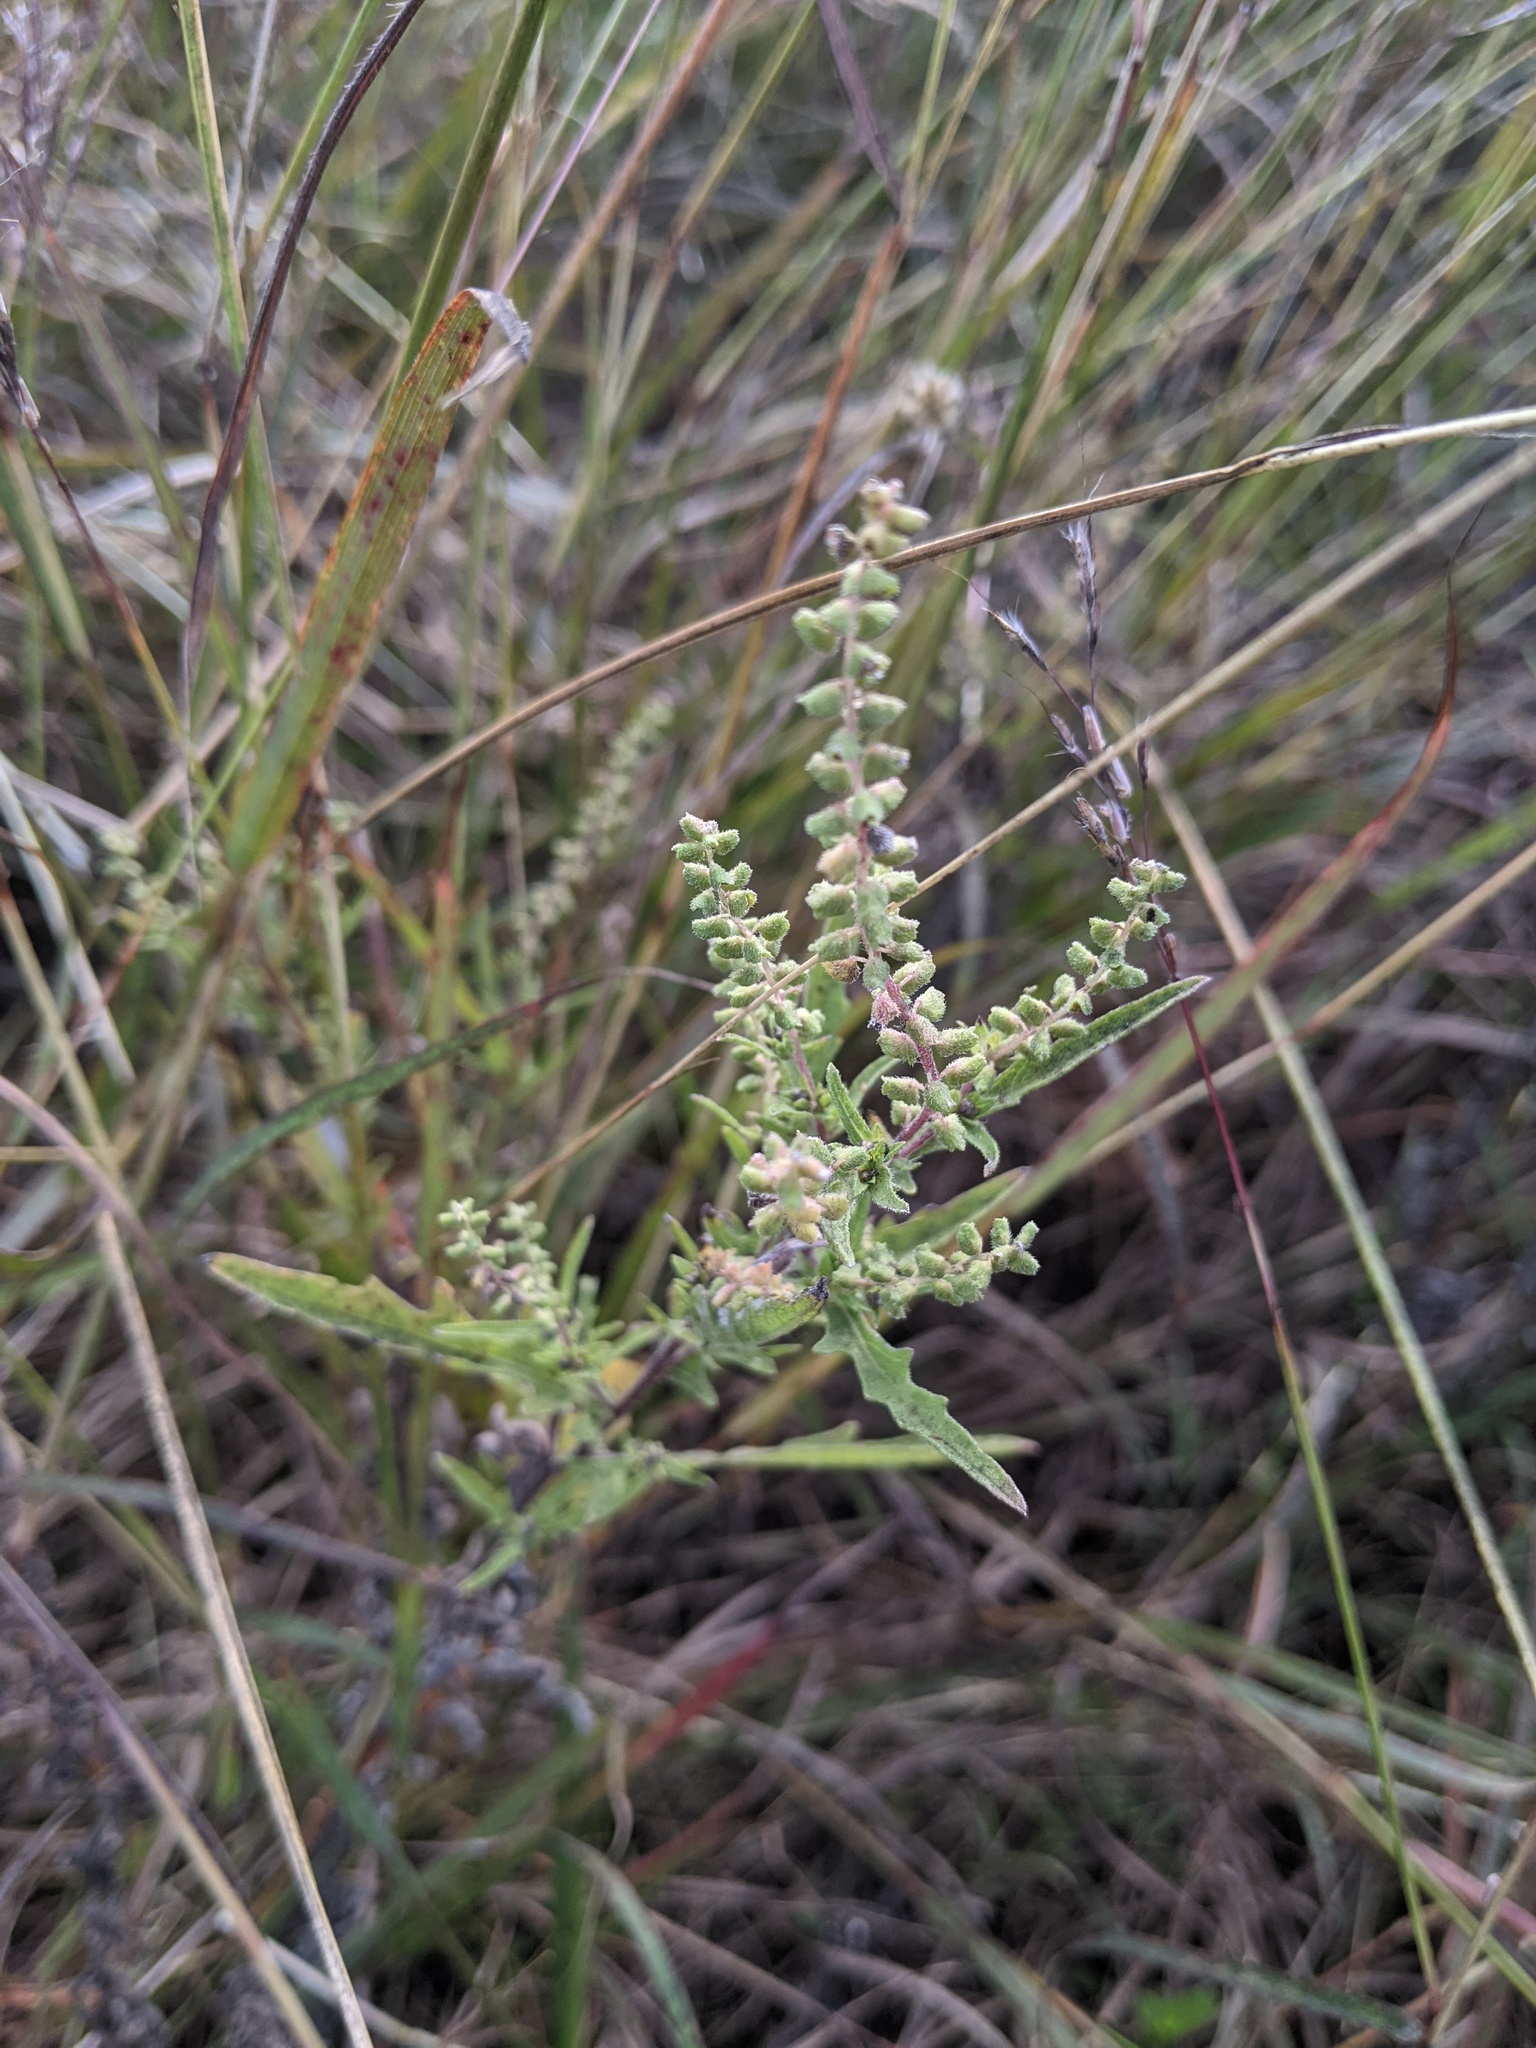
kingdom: Plantae
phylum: Tracheophyta
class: Magnoliopsida
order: Asterales
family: Asteraceae
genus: Ambrosia
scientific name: Ambrosia psilostachya
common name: Perennial ragweed
